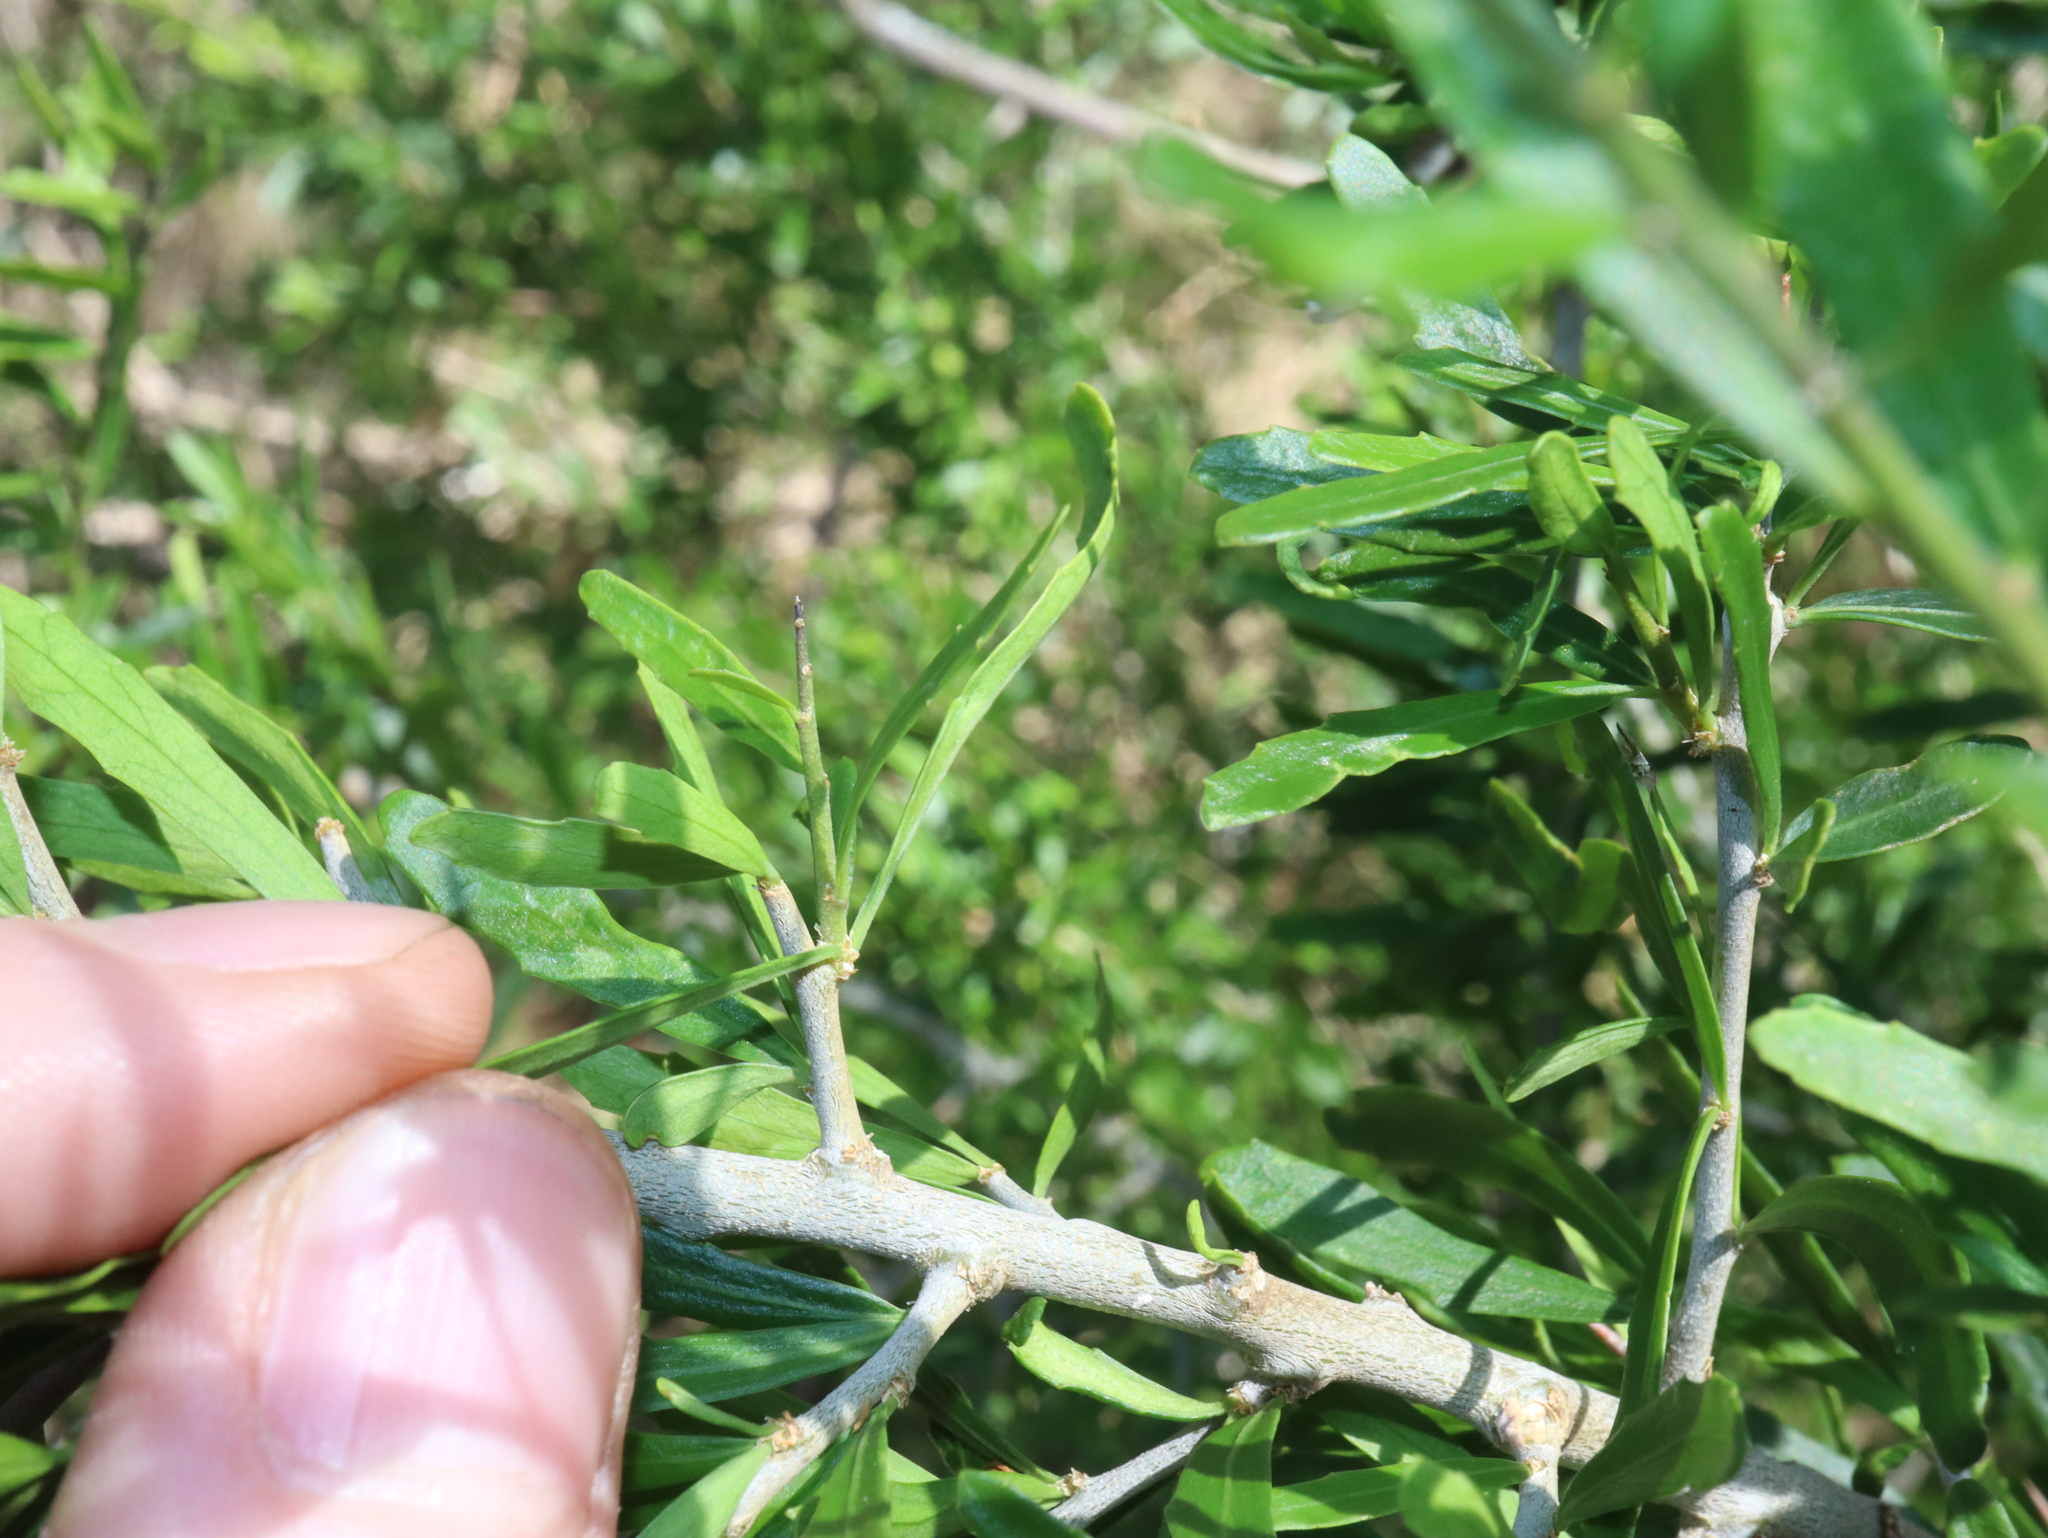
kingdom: Plantae
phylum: Tracheophyta
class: Magnoliopsida
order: Malpighiales
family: Violaceae
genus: Melicytus
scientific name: Melicytus dentatus
